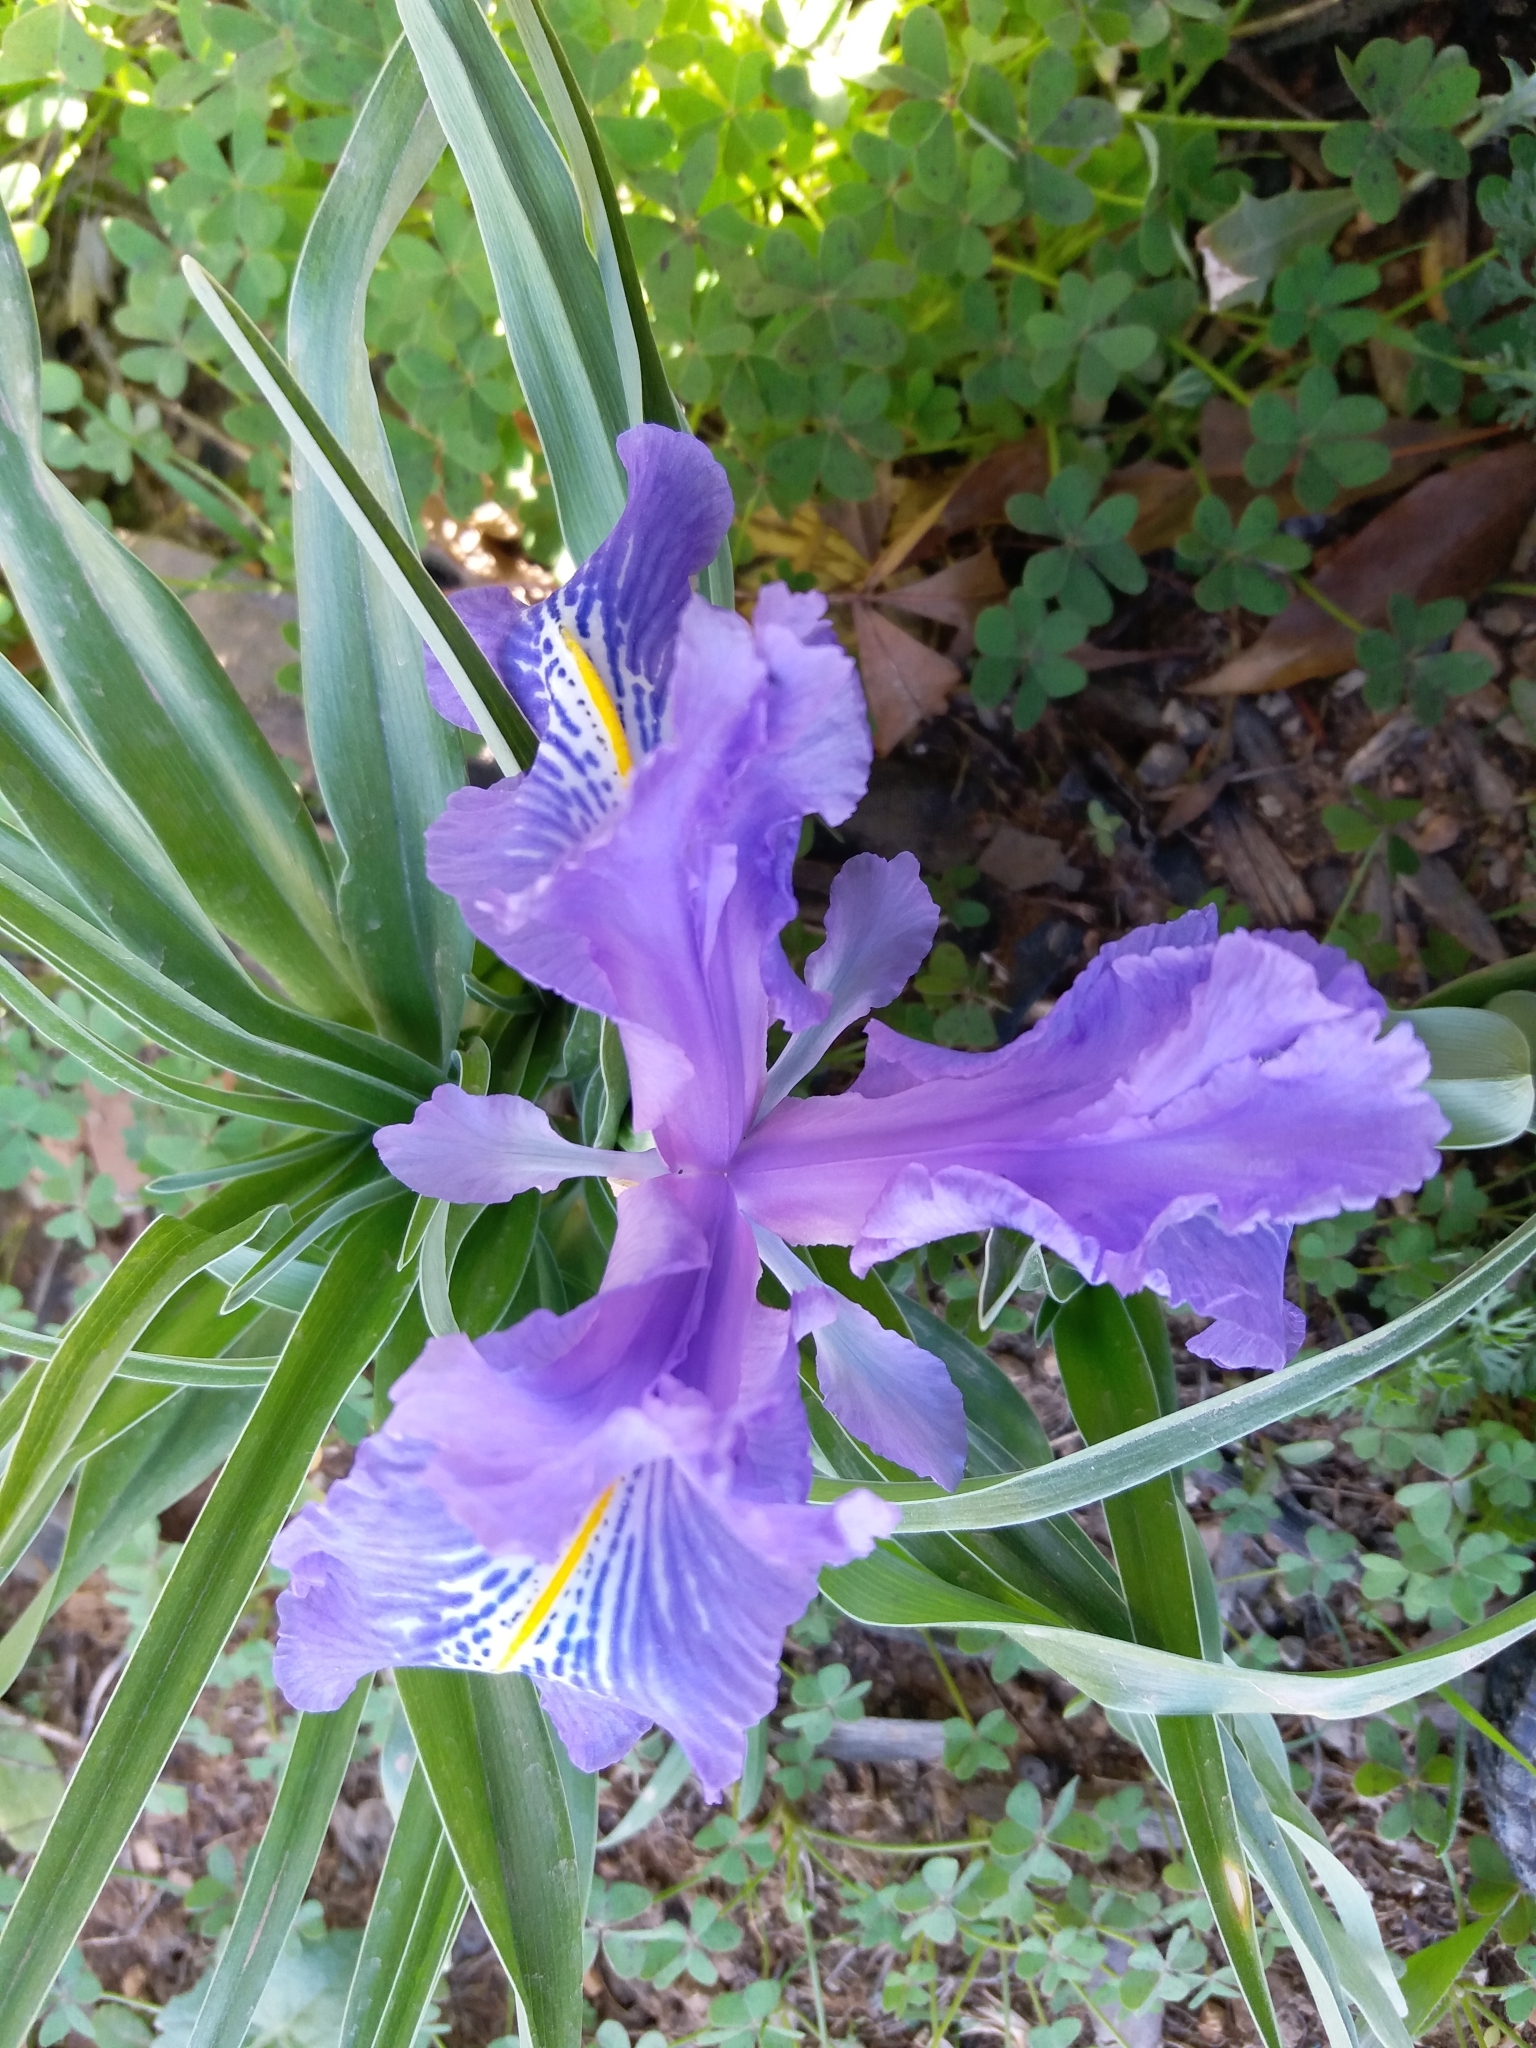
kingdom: Plantae
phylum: Tracheophyta
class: Liliopsida
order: Asparagales
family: Iridaceae
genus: Iris
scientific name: Iris planifolia
